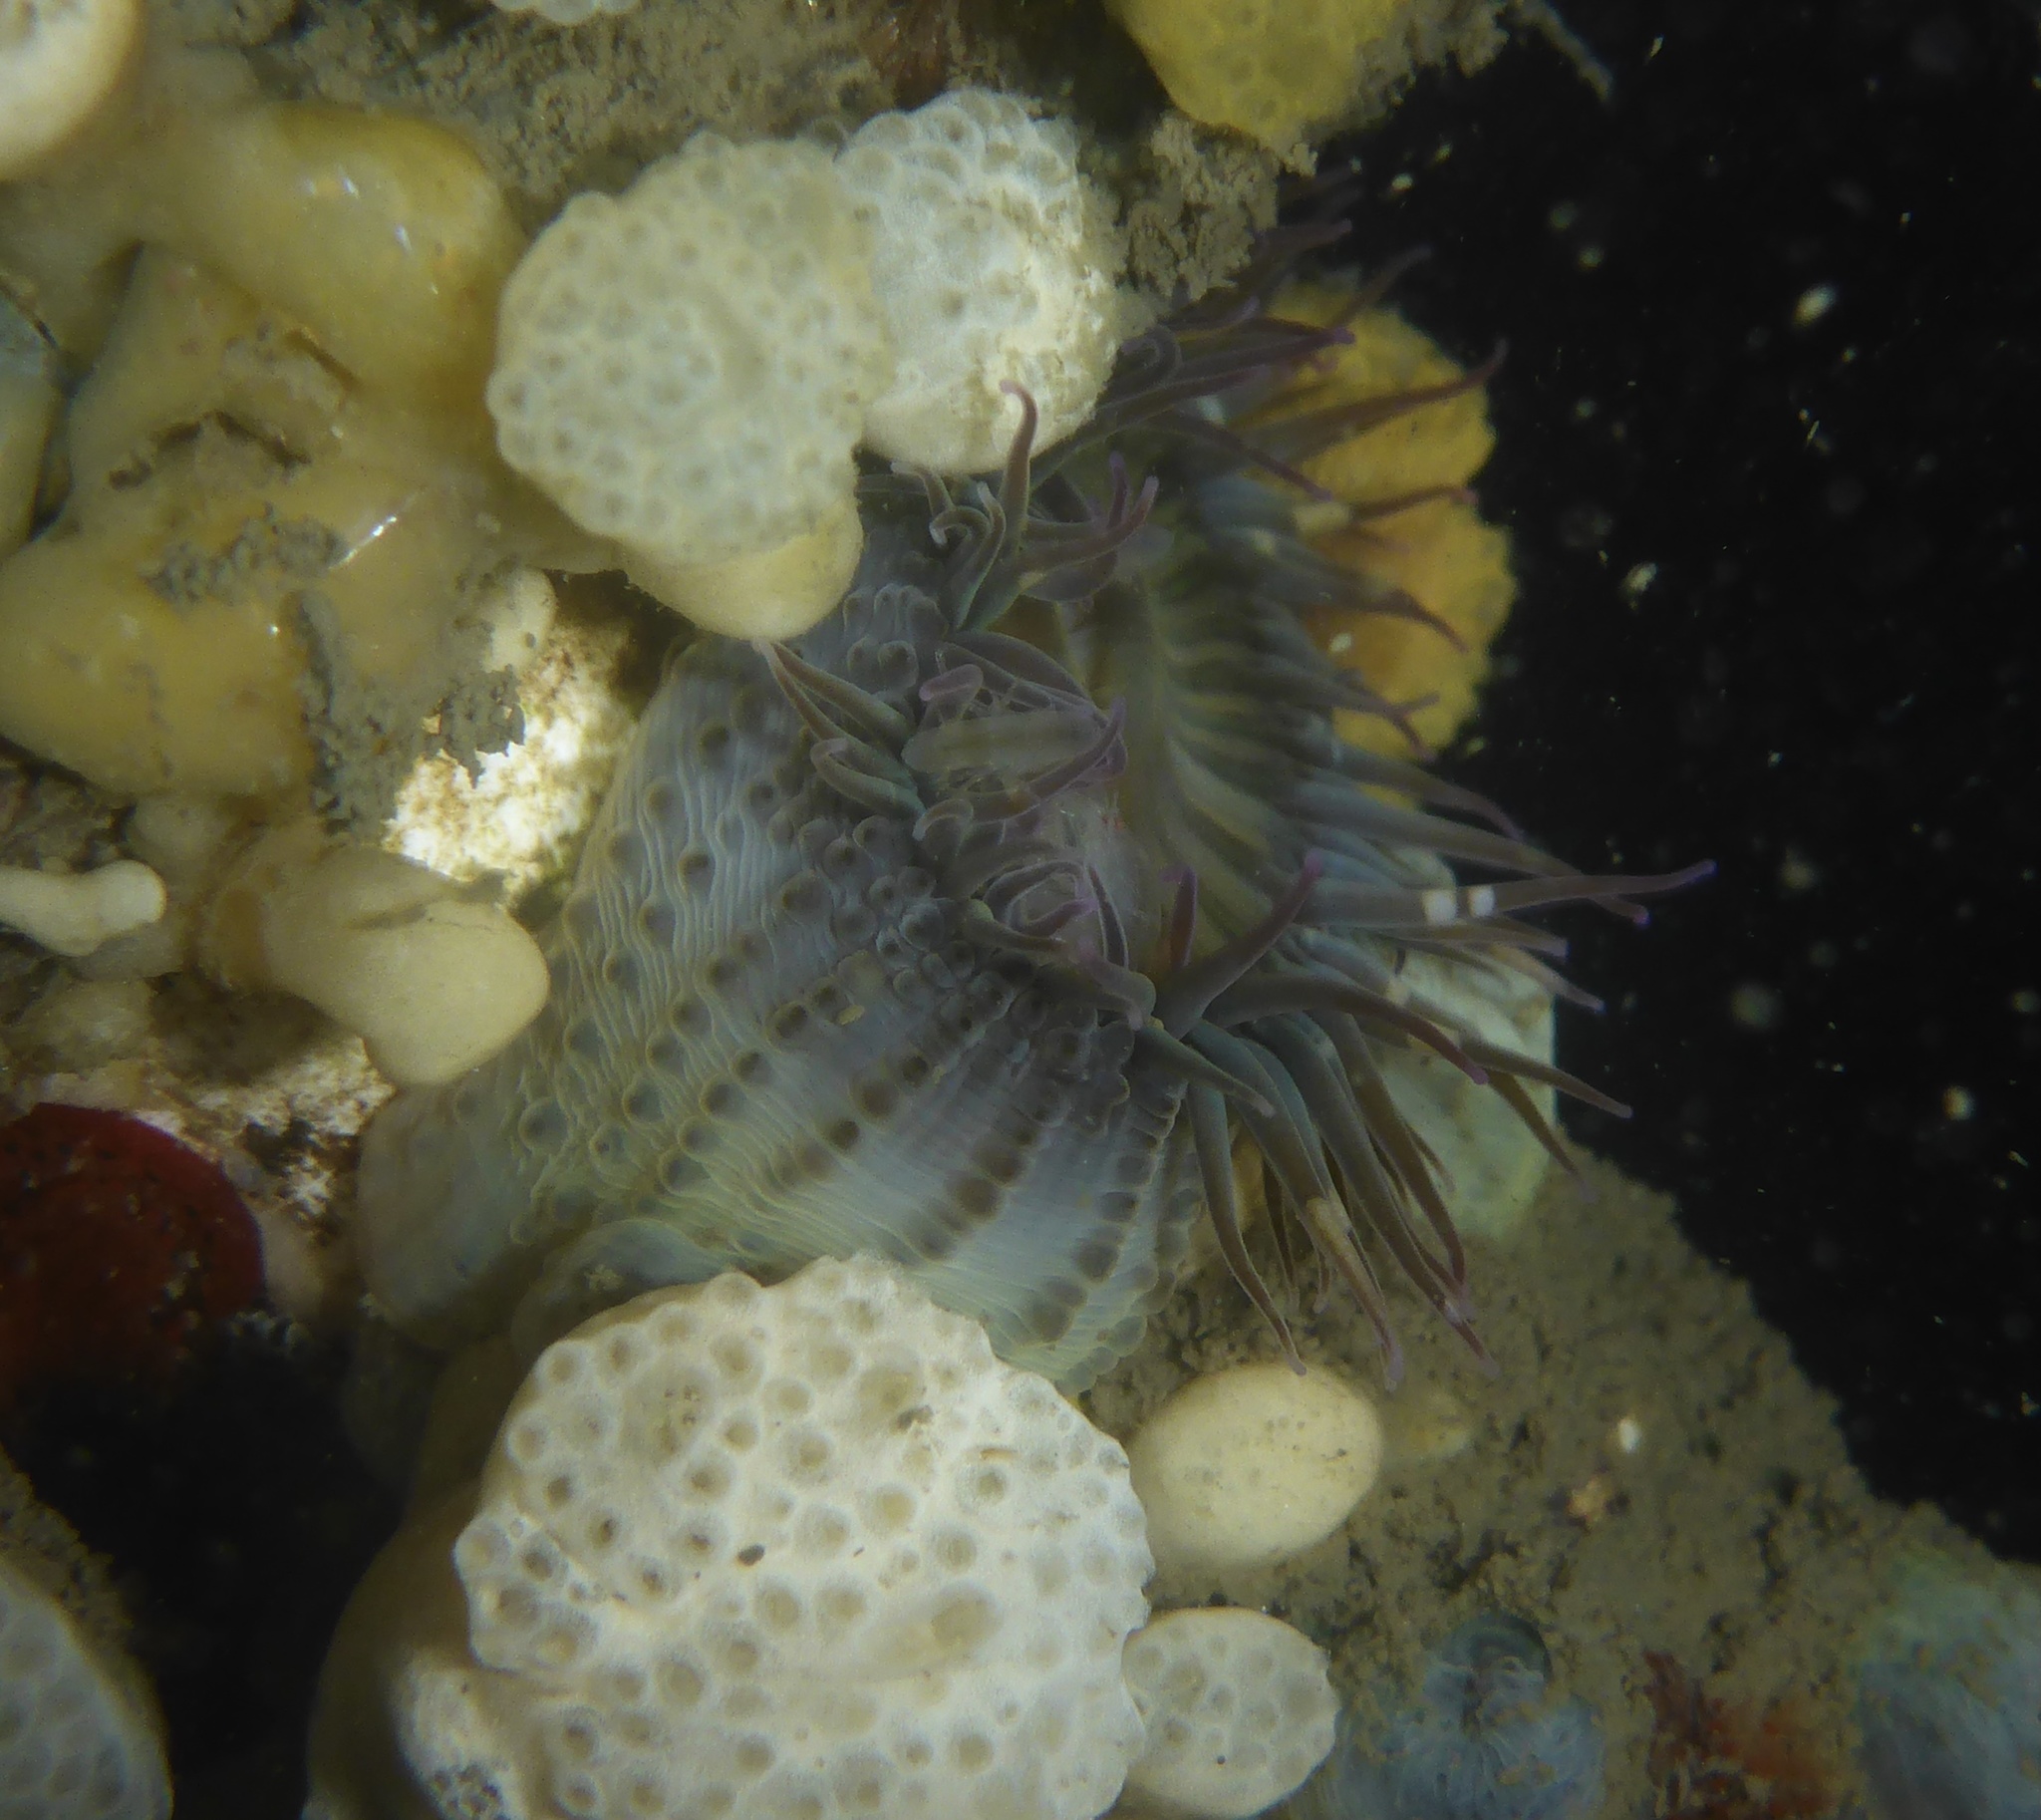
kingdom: Animalia
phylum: Cnidaria
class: Anthozoa
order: Actiniaria
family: Actiniidae
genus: Anthopleura
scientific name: Anthopleura elegantissima
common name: Clonal anemone
